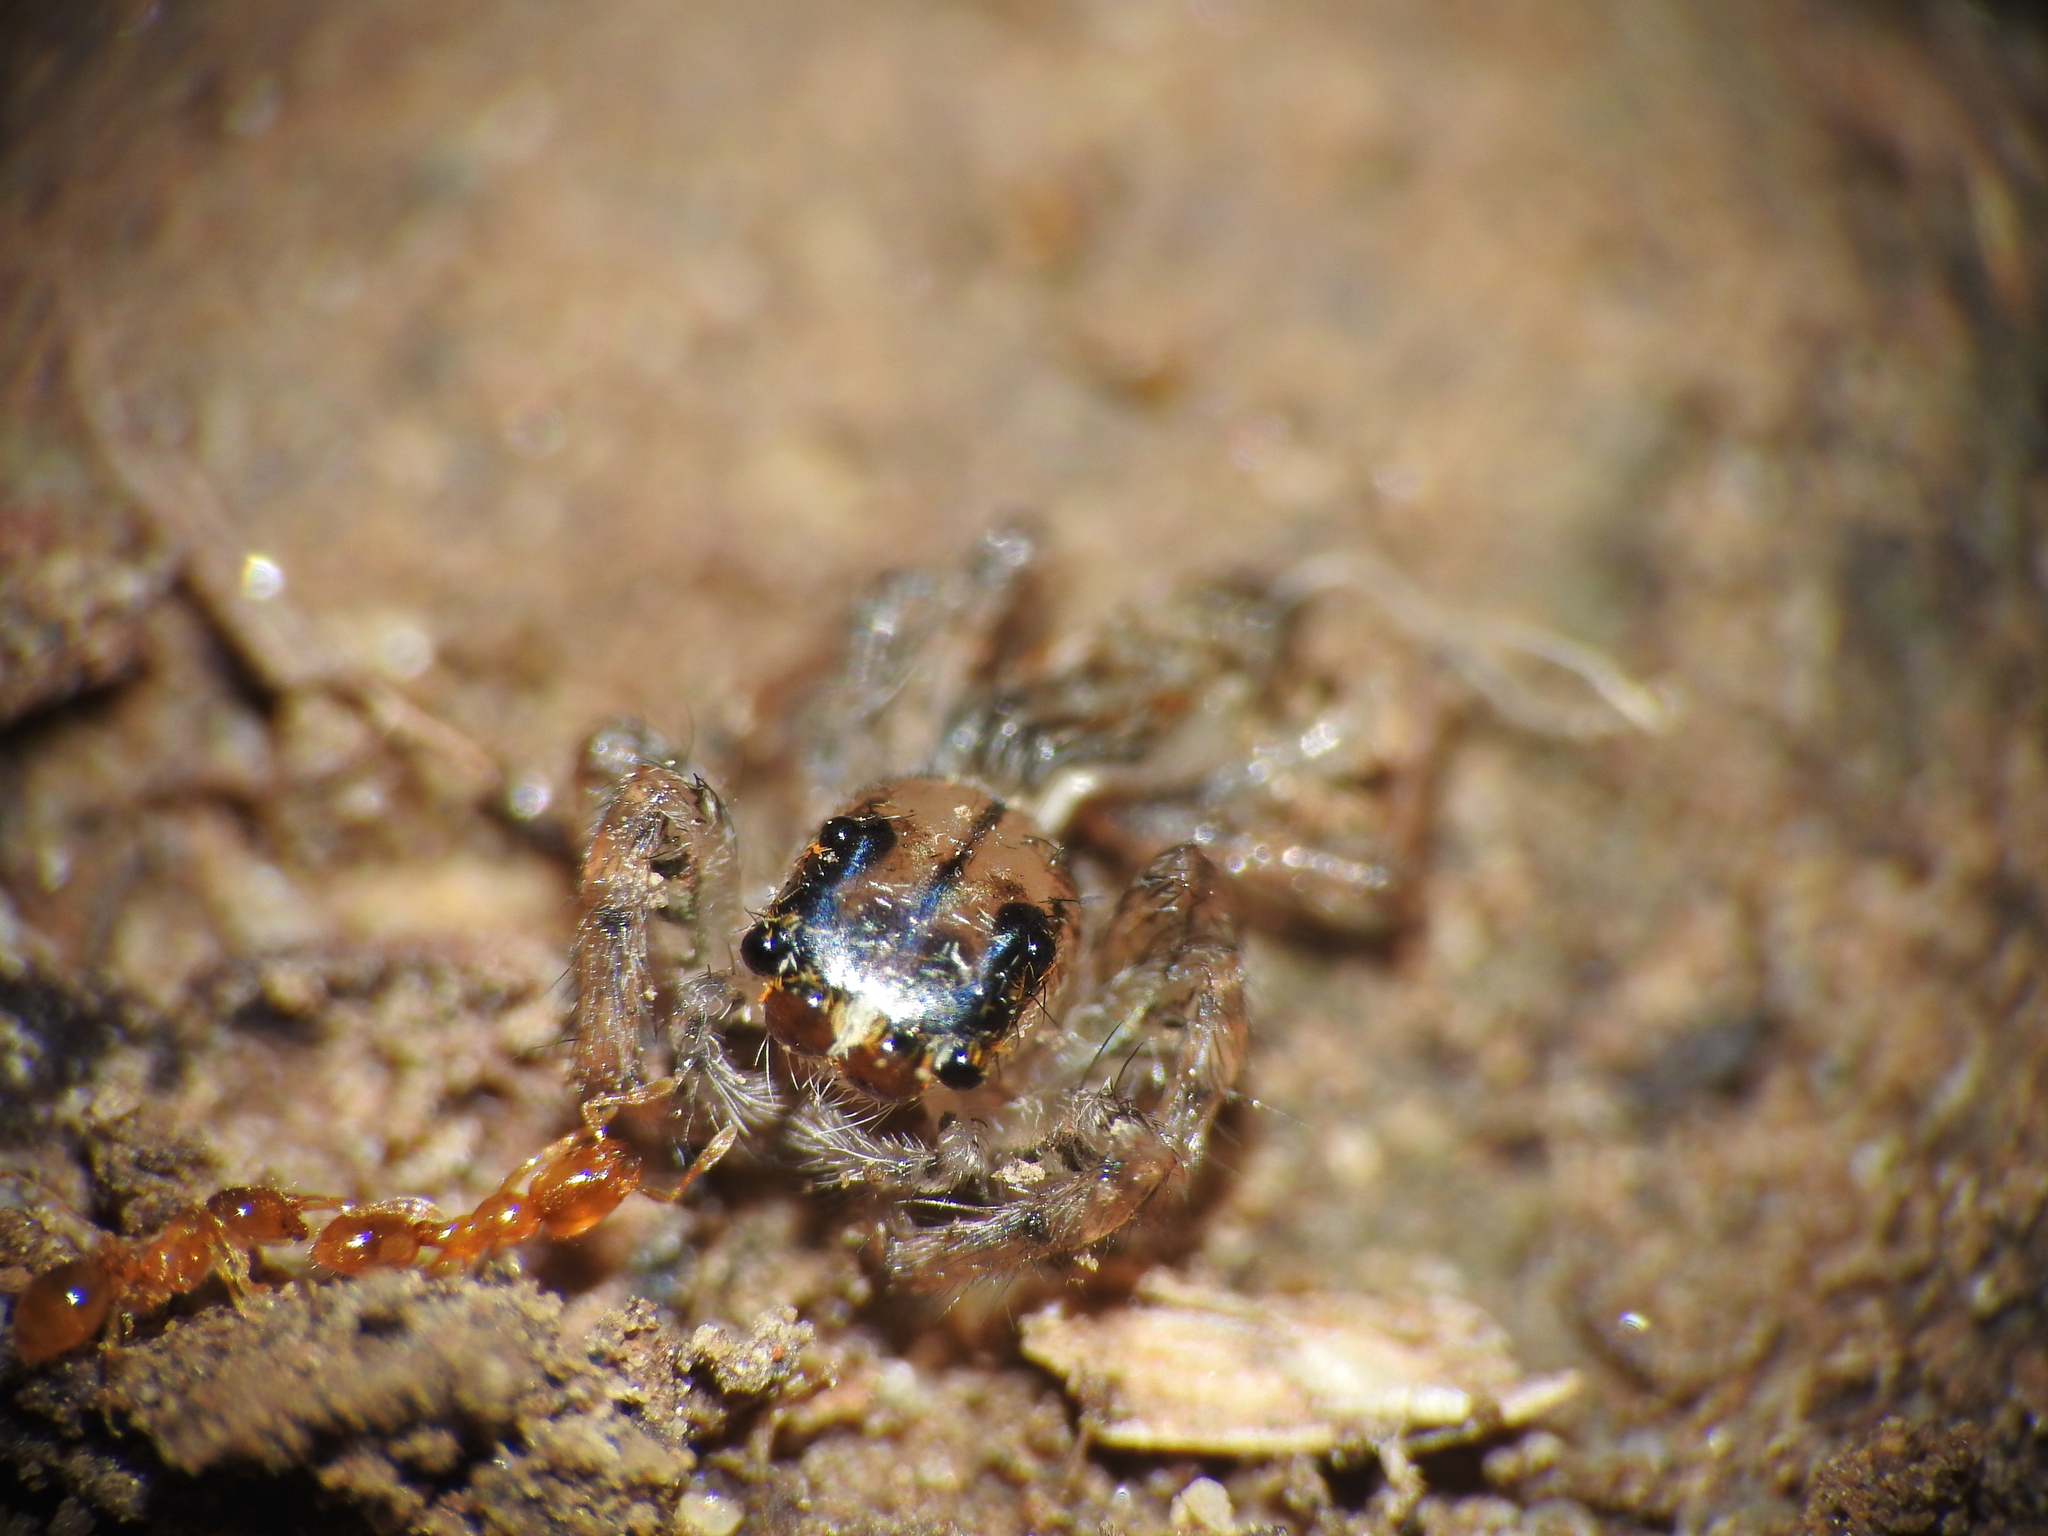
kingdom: Animalia
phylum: Arthropoda
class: Arachnida
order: Araneae
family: Salticidae
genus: Maevia
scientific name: Maevia inclemens
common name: Dimorphic jumper
